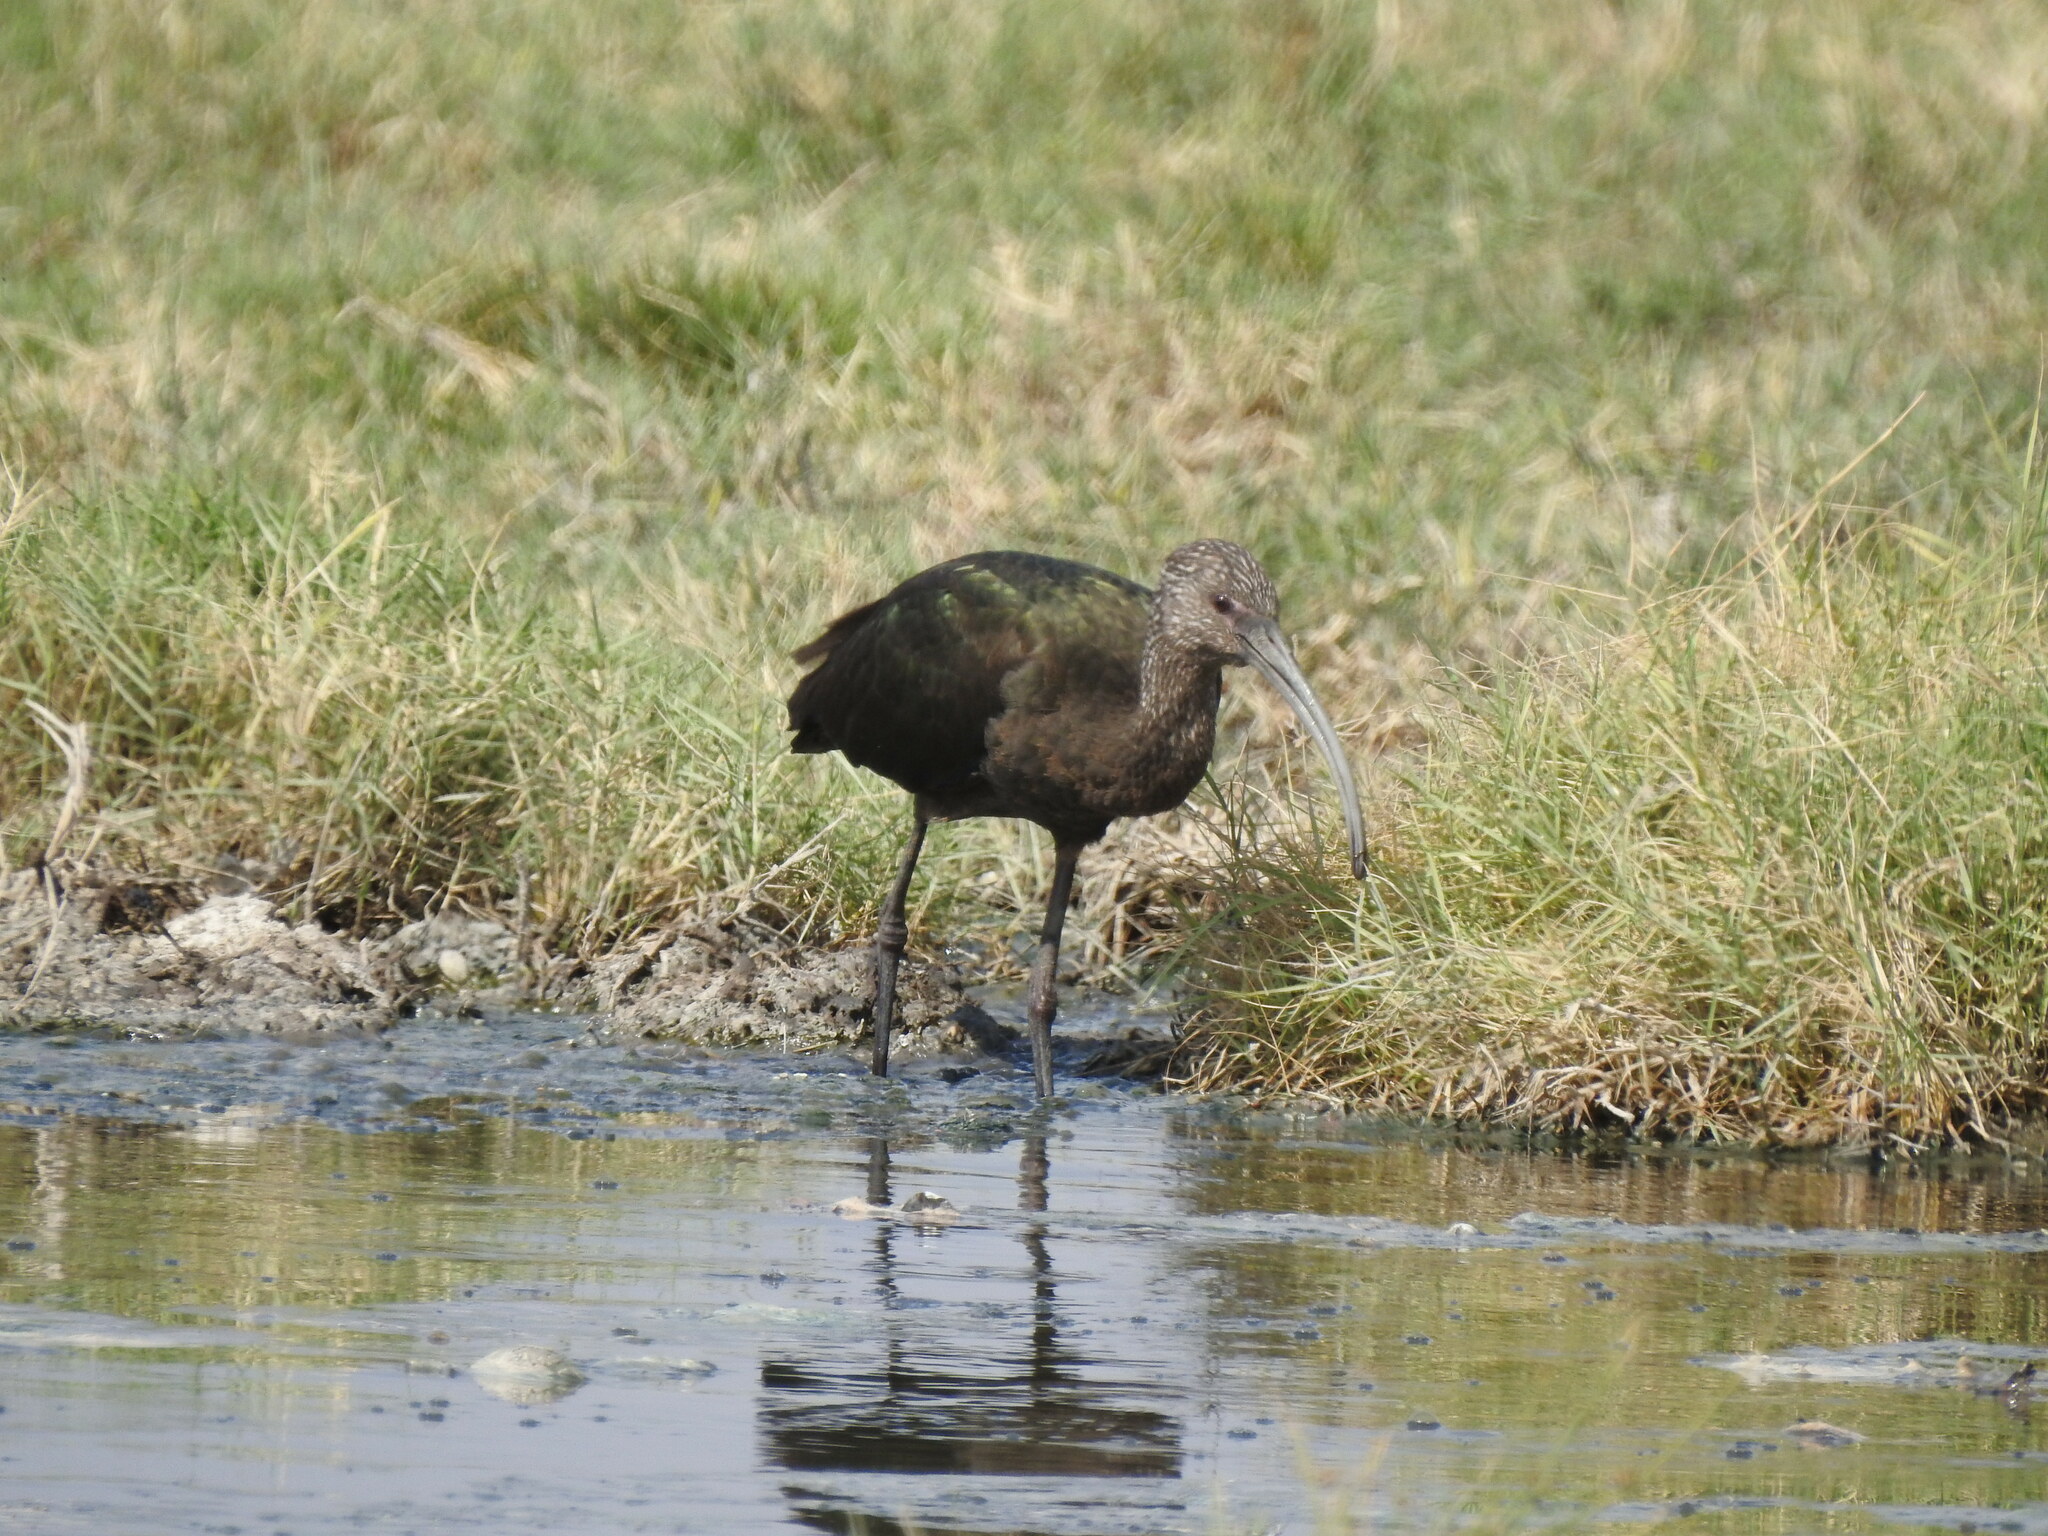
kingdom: Animalia
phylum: Chordata
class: Aves
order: Pelecaniformes
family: Threskiornithidae
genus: Plegadis
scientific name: Plegadis chihi
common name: White-faced ibis
